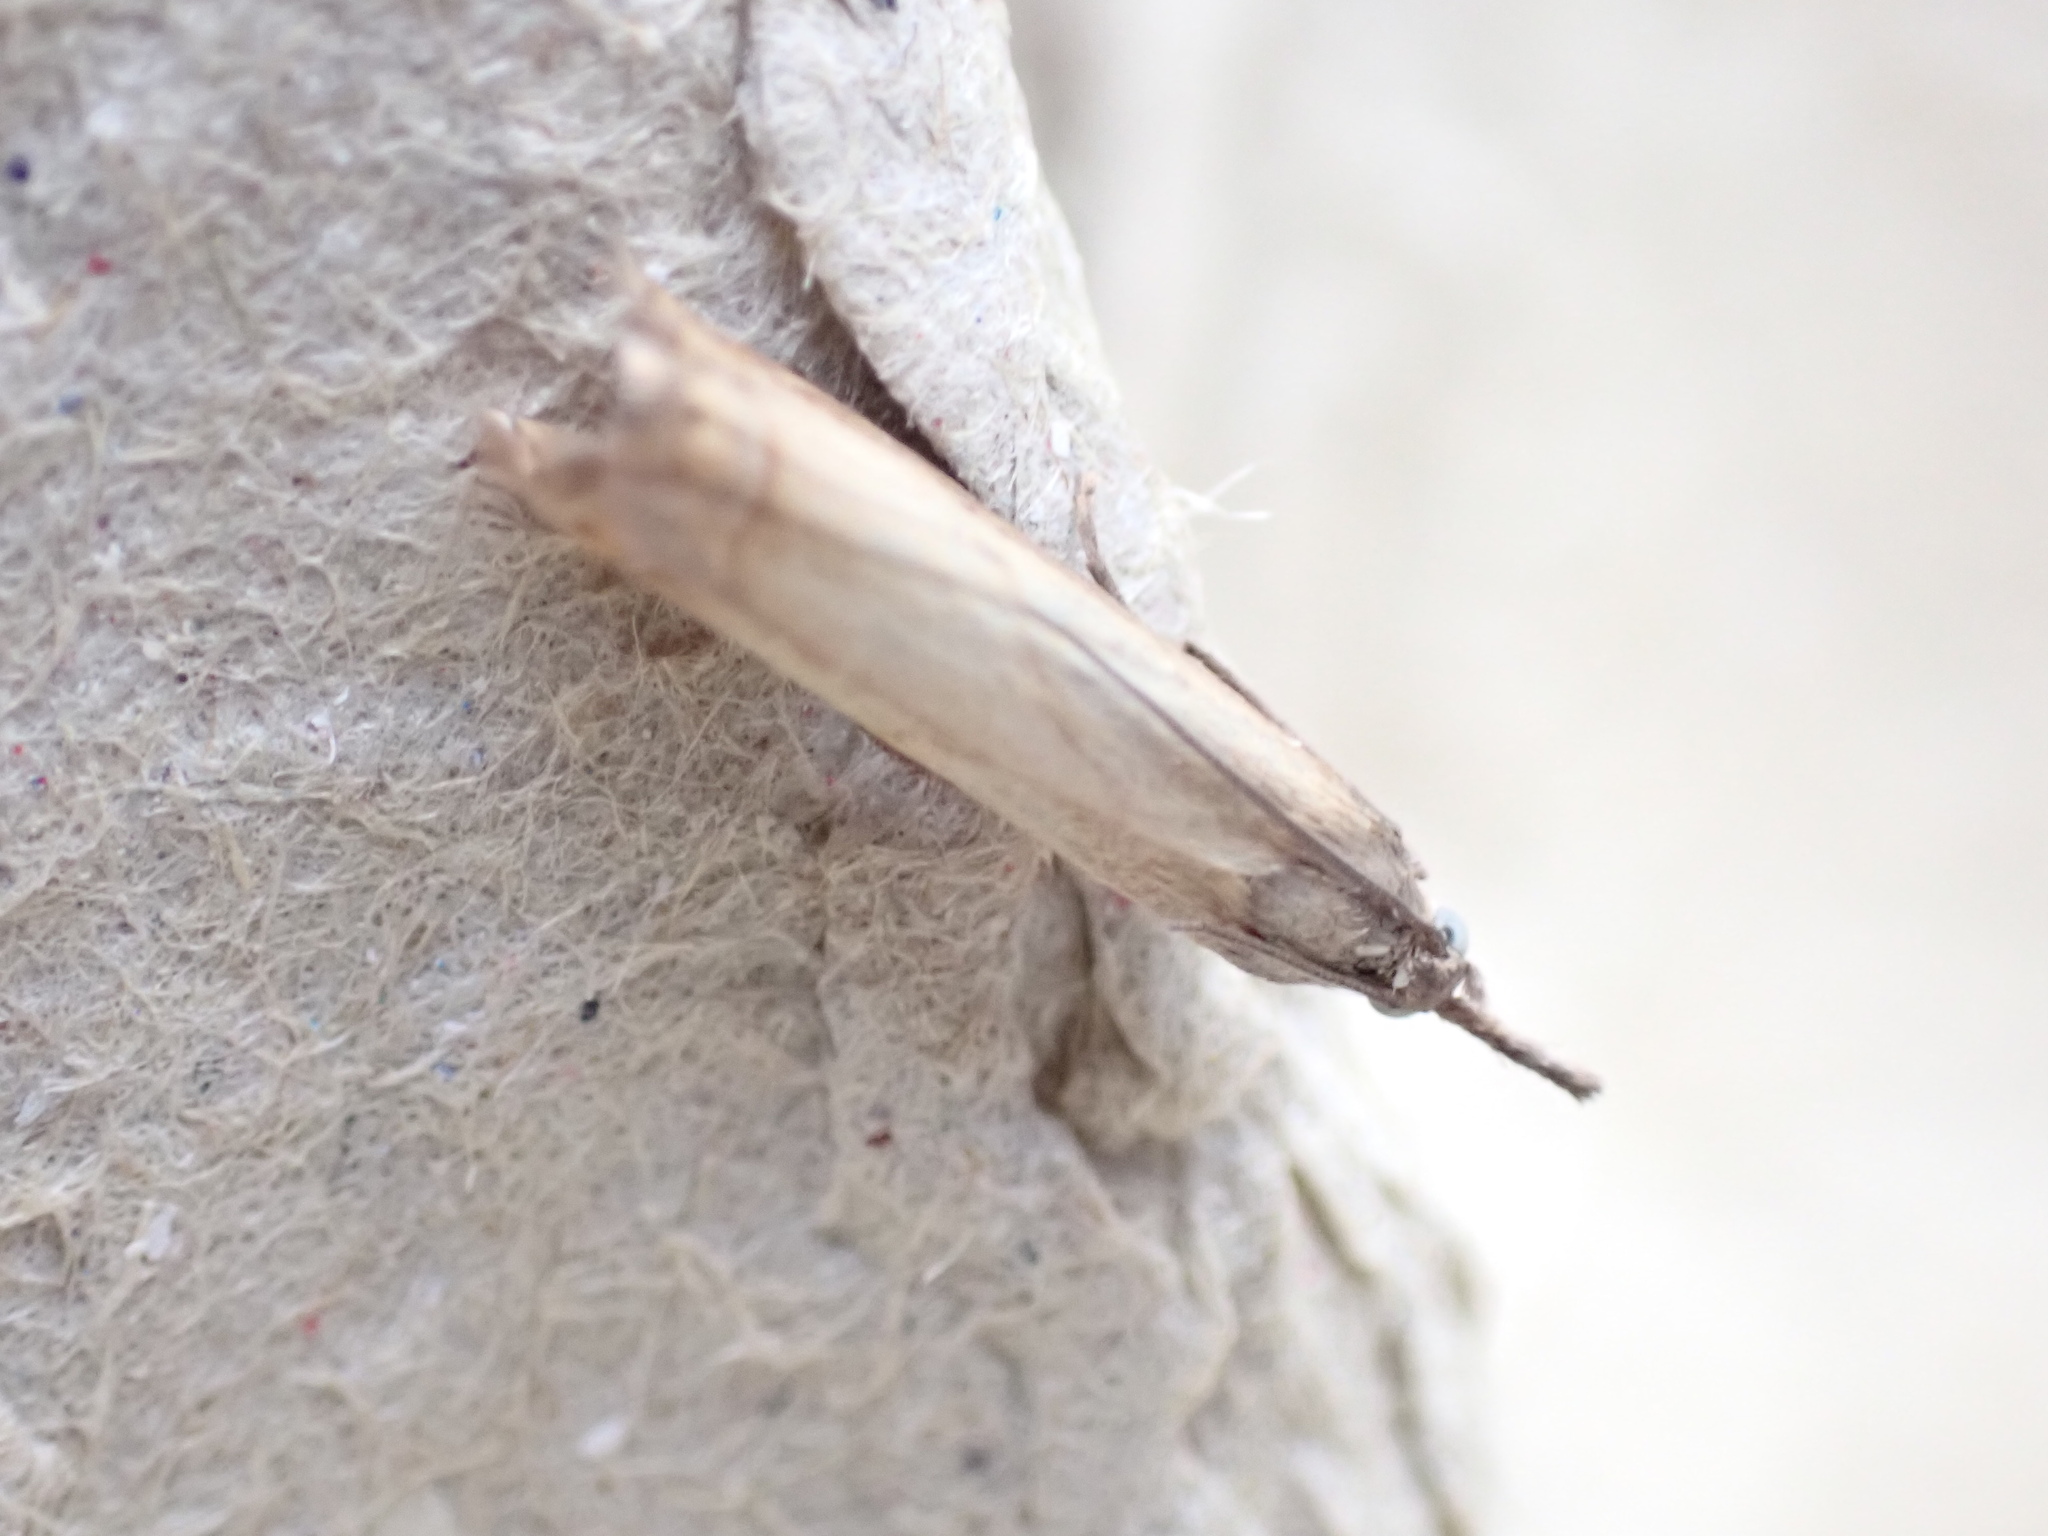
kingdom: Animalia
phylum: Arthropoda
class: Insecta
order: Lepidoptera
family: Crambidae
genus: Chrysoteuchia
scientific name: Chrysoteuchia culmella
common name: Garden grass-veneer
